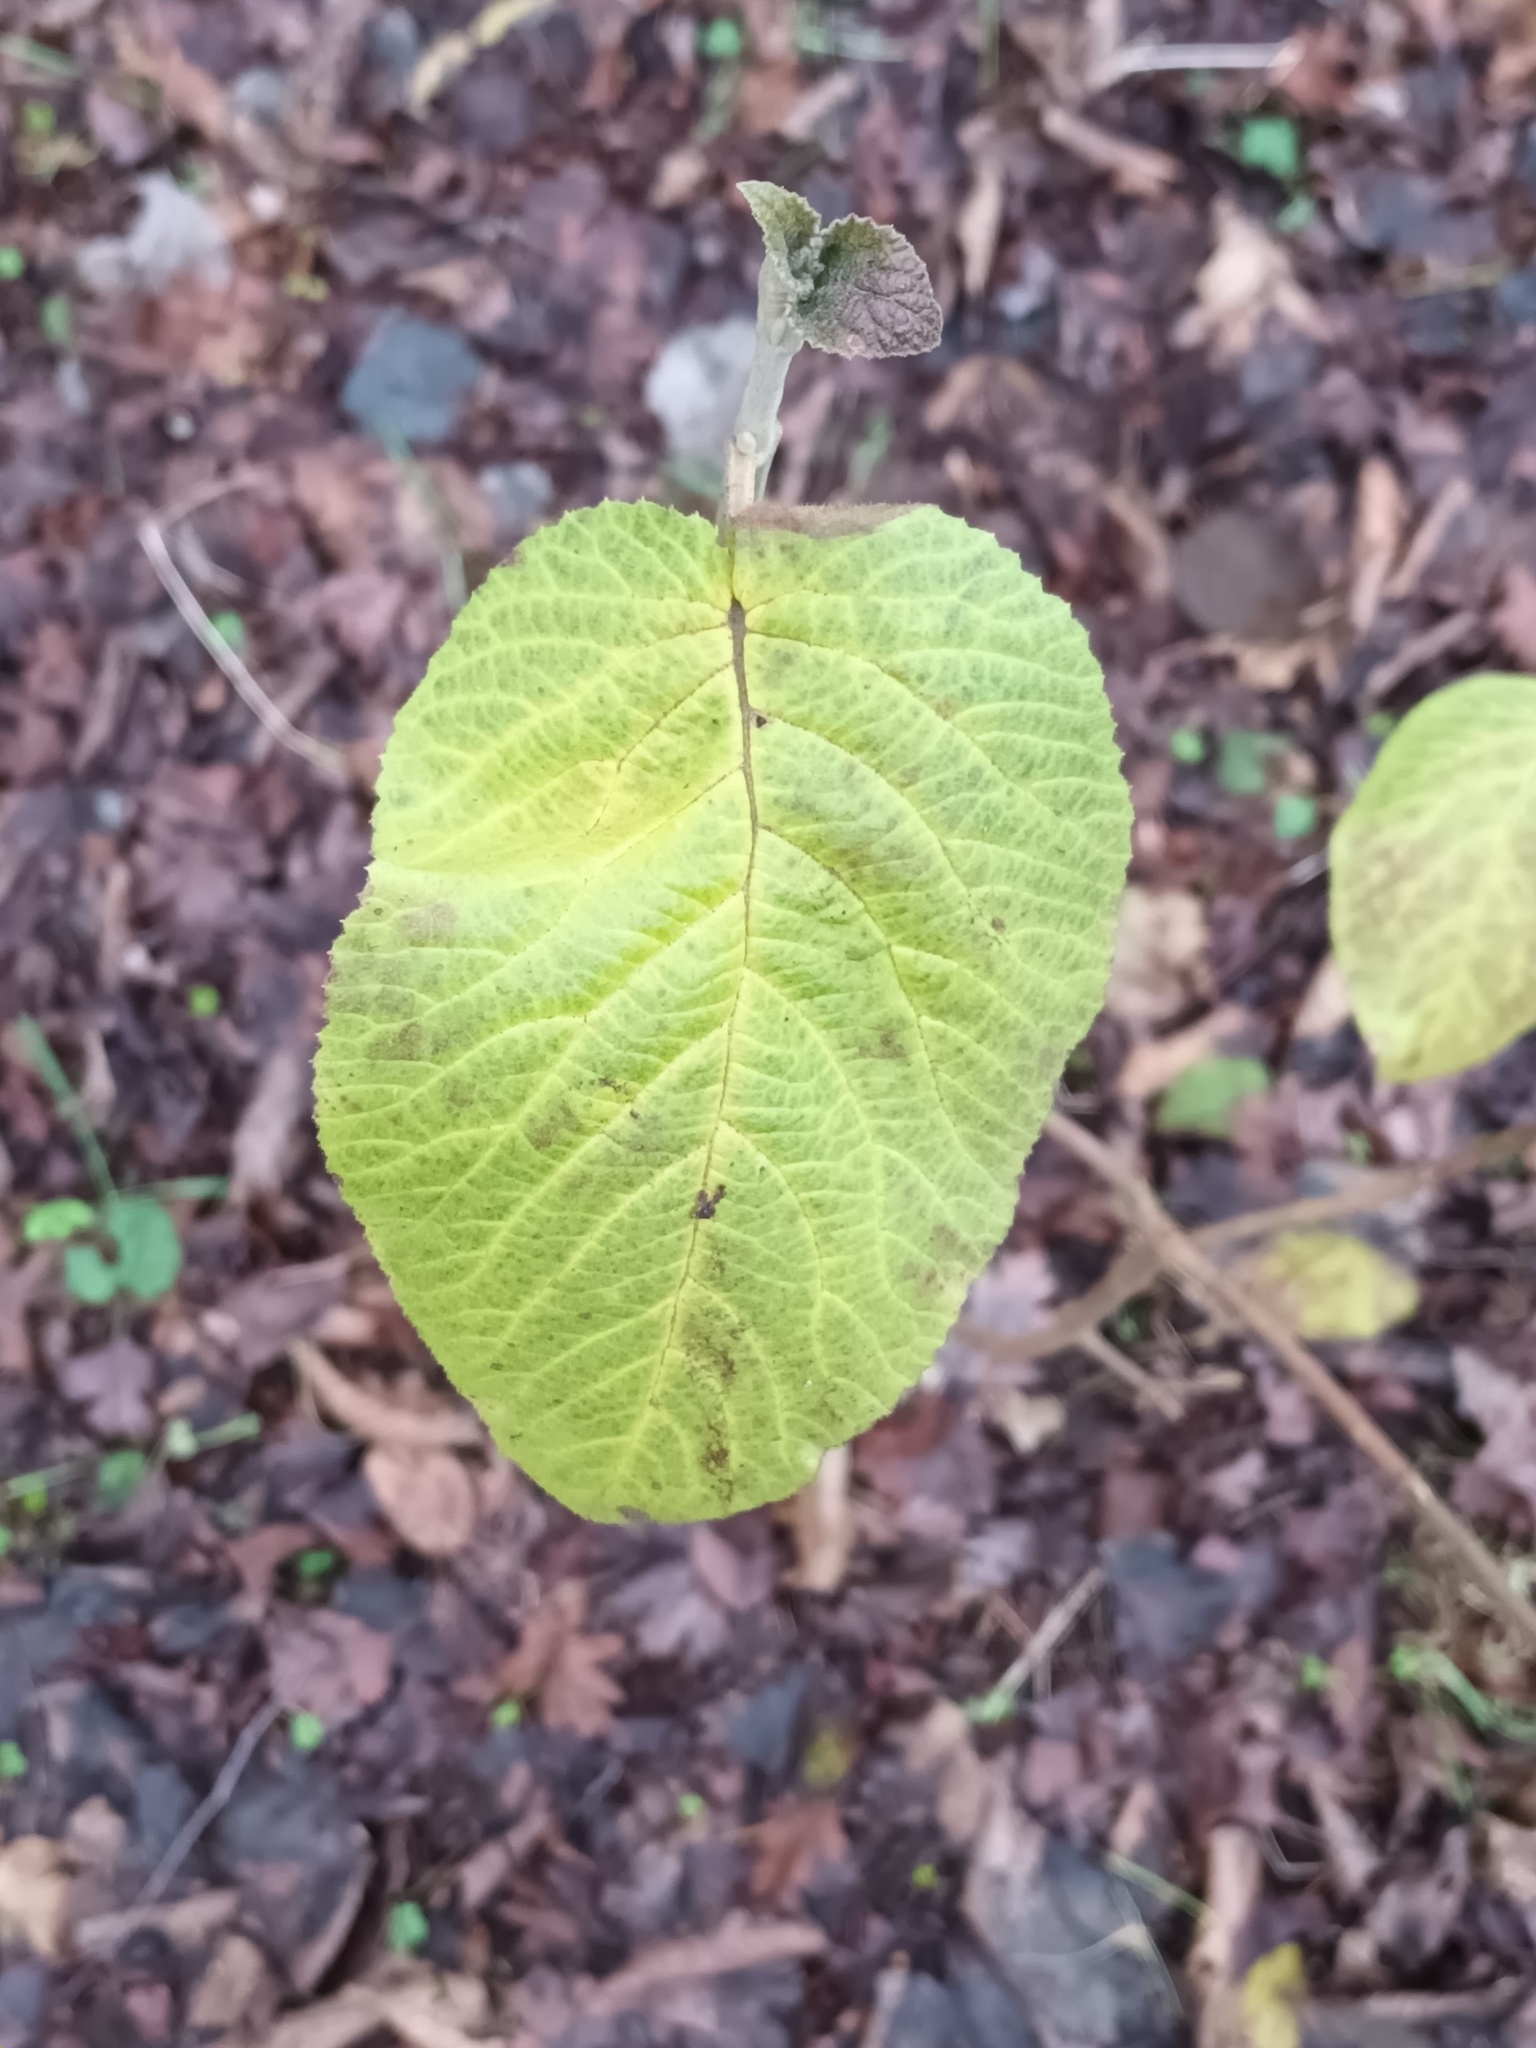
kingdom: Plantae
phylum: Tracheophyta
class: Magnoliopsida
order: Dipsacales
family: Viburnaceae
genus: Viburnum
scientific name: Viburnum lantana
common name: Wayfaring tree
